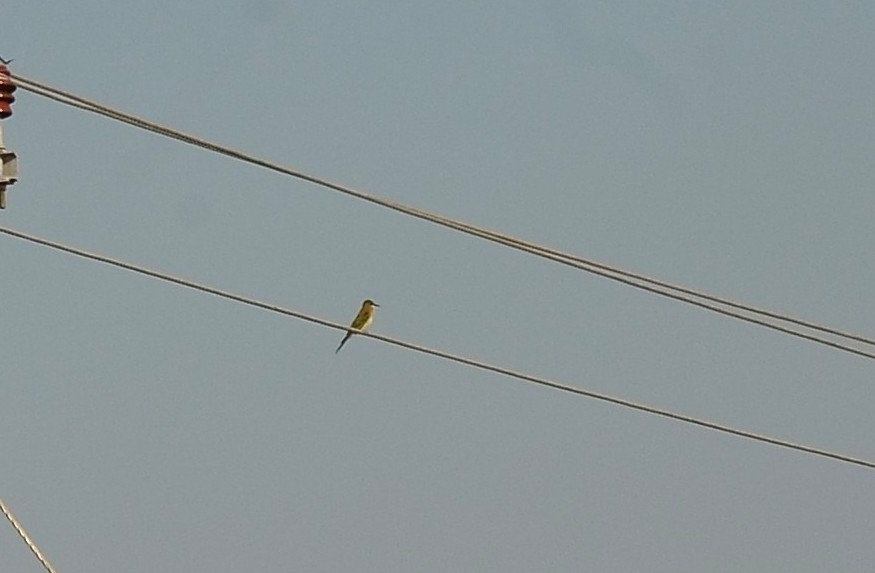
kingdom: Animalia
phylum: Chordata
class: Aves
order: Coraciiformes
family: Meropidae
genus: Merops
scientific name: Merops philippinus
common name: Blue-tailed bee-eater
